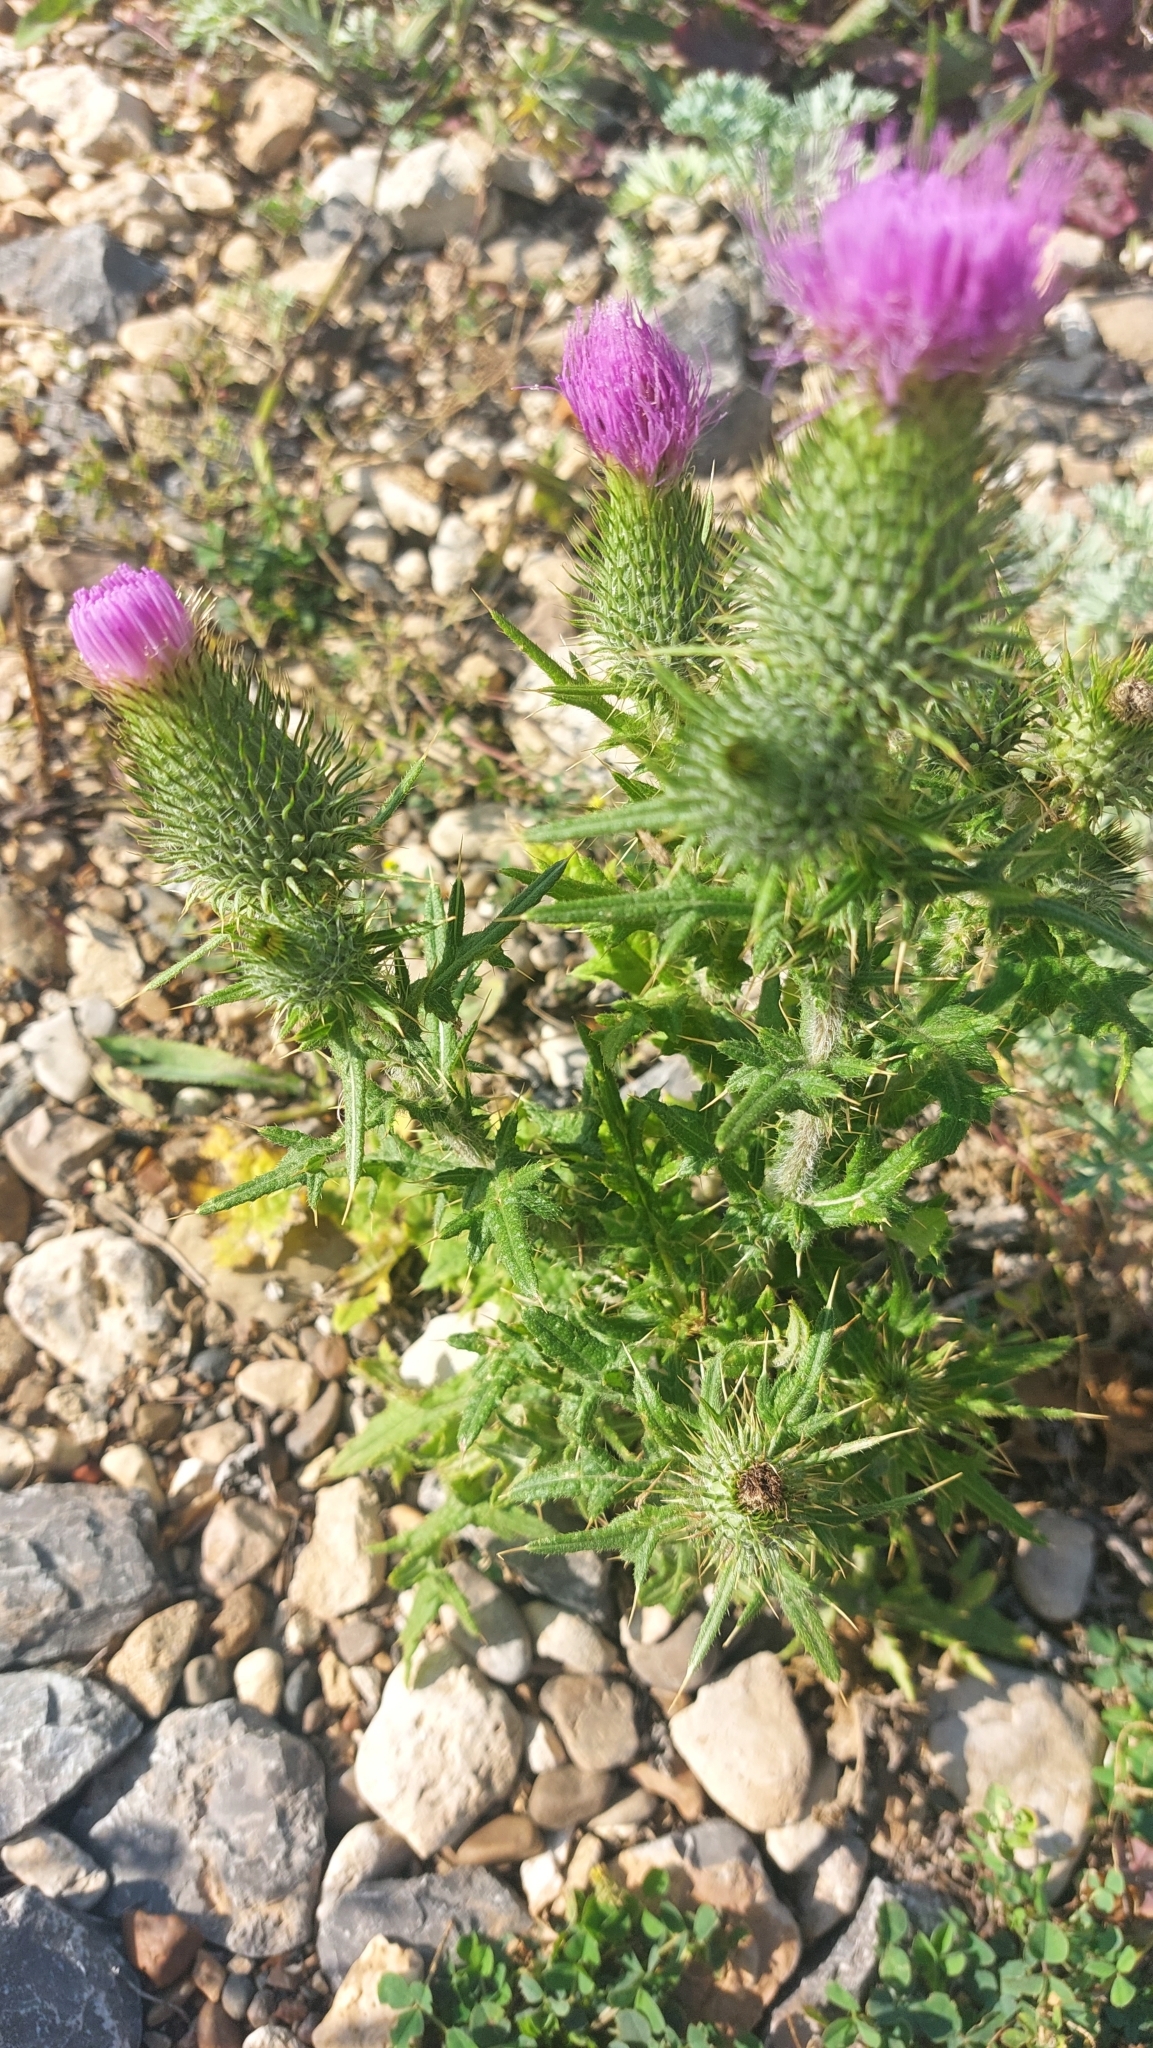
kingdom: Plantae
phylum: Tracheophyta
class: Magnoliopsida
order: Asterales
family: Asteraceae
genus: Cirsium
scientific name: Cirsium vulgare
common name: Bull thistle
